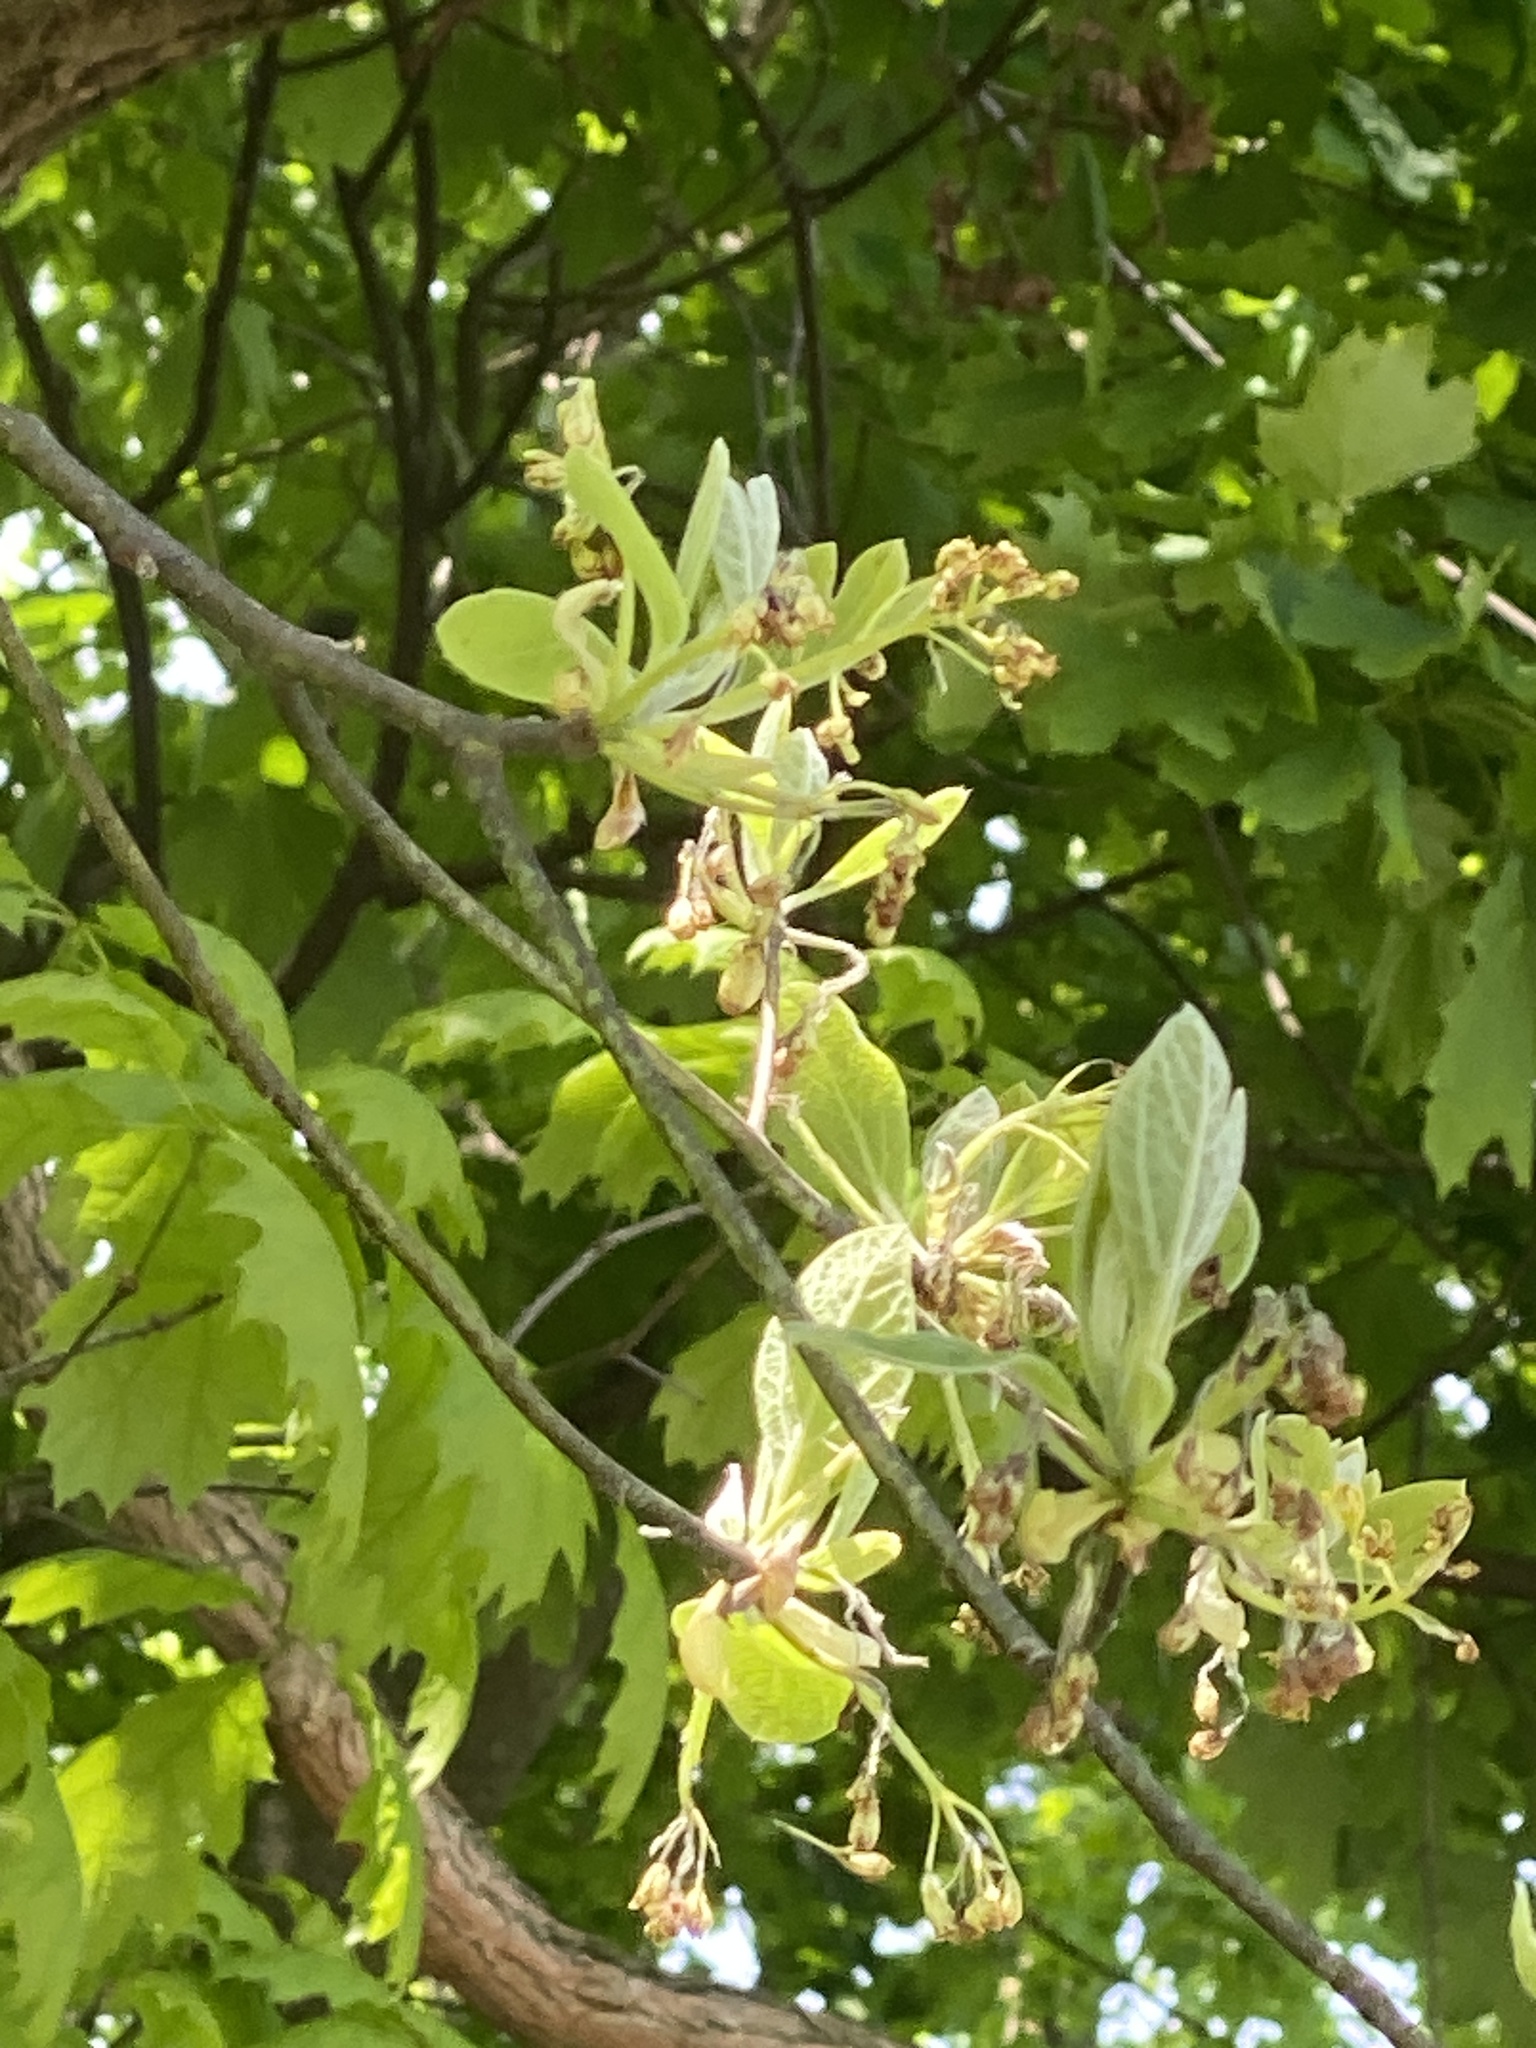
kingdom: Plantae
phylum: Tracheophyta
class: Magnoliopsida
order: Laurales
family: Lauraceae
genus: Sassafras
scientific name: Sassafras albidum
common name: Sassafras
